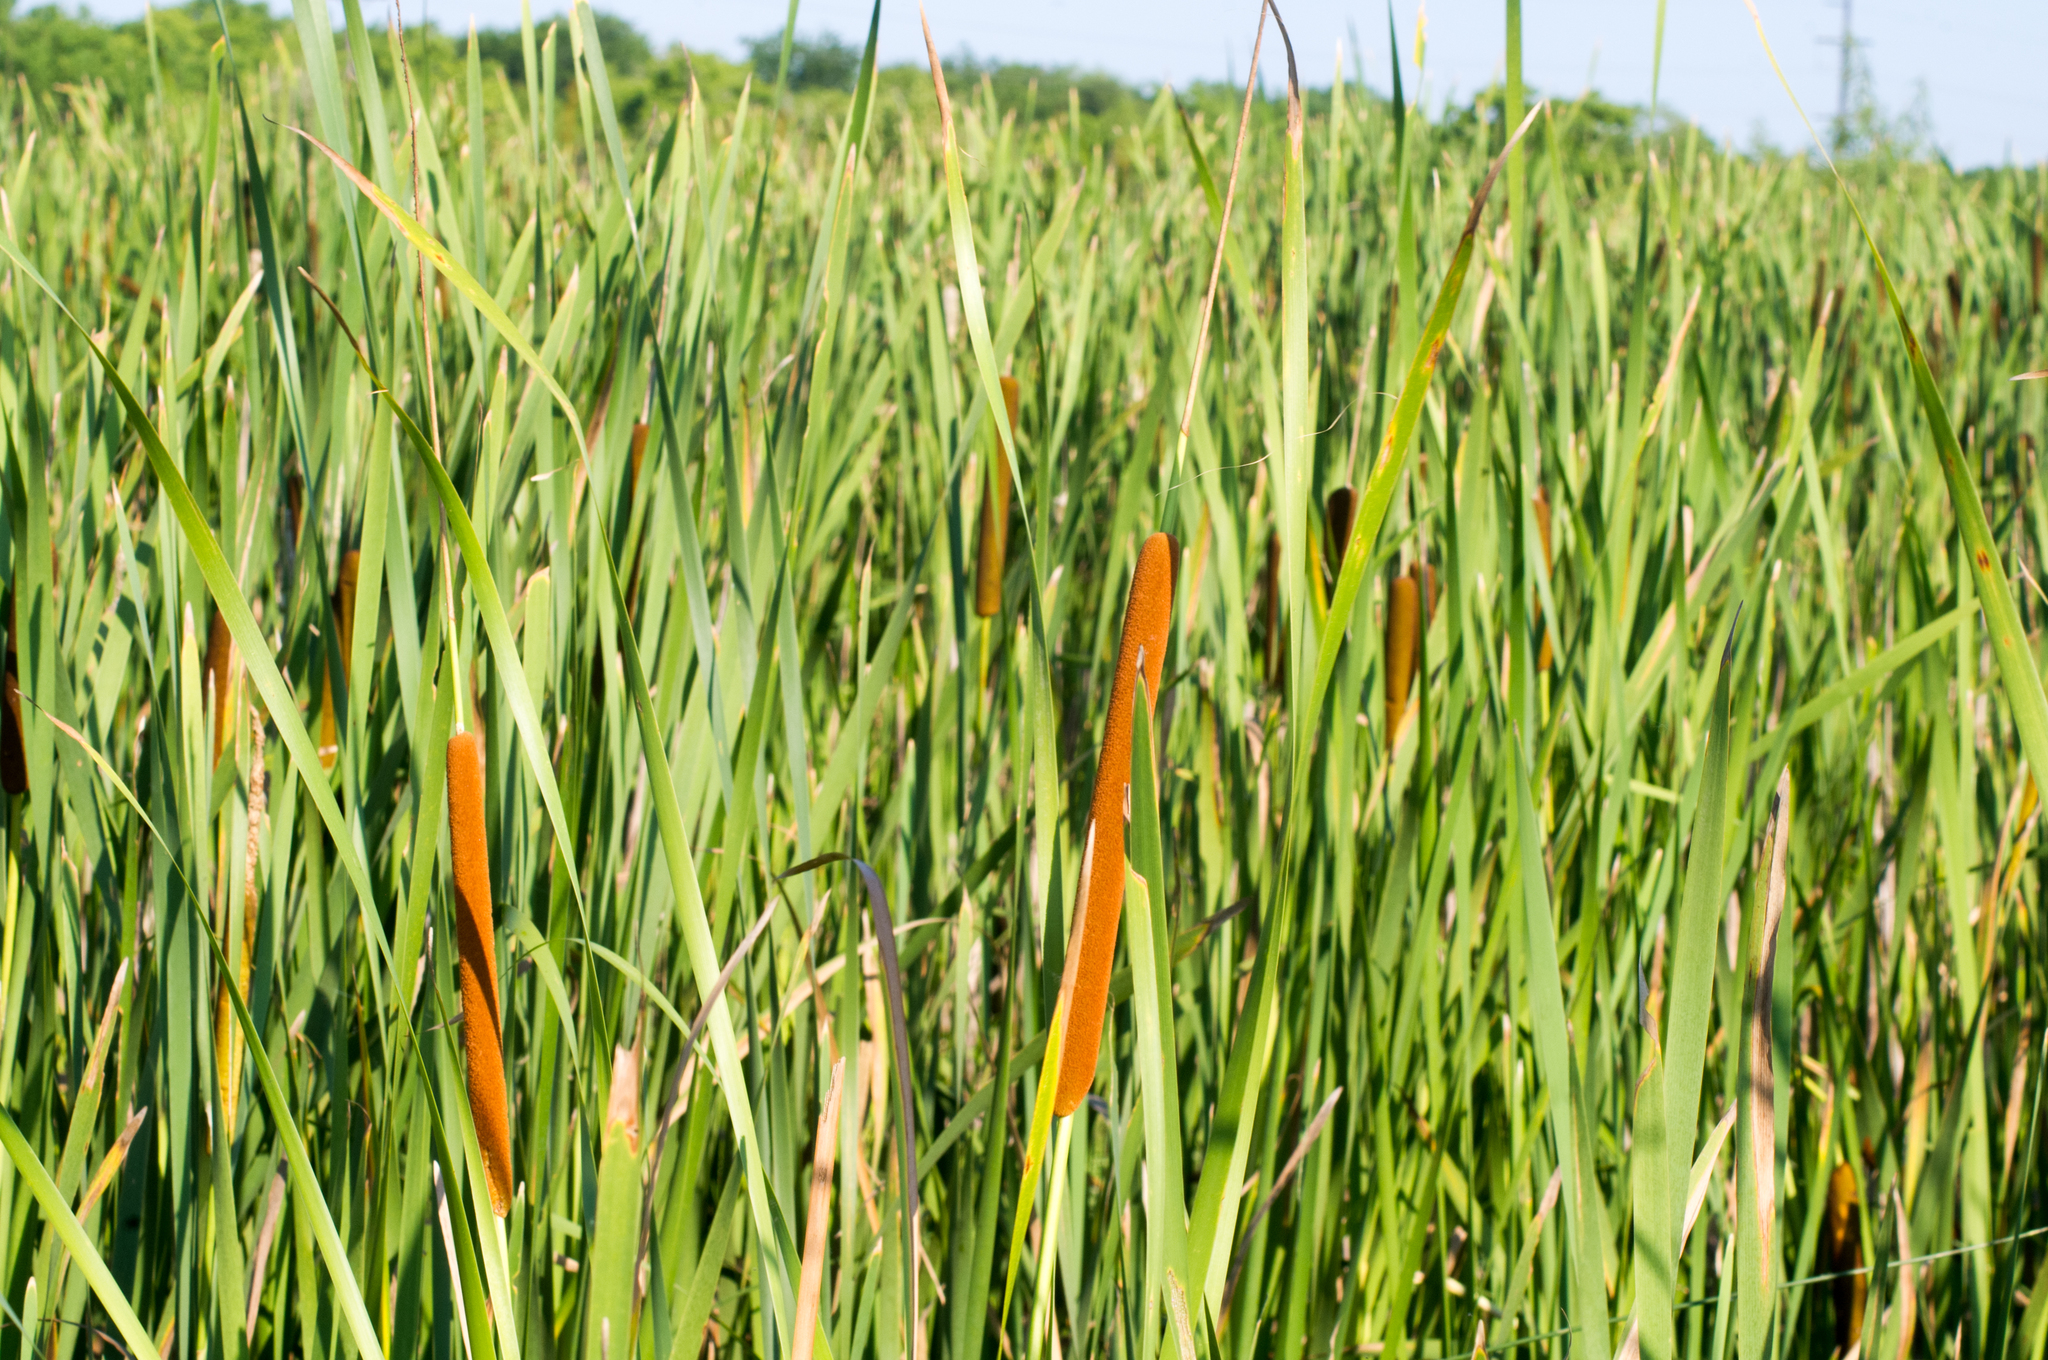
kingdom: Plantae
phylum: Tracheophyta
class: Liliopsida
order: Poales
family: Typhaceae
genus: Typha
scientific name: Typha angustifolia
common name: Lesser bulrush
